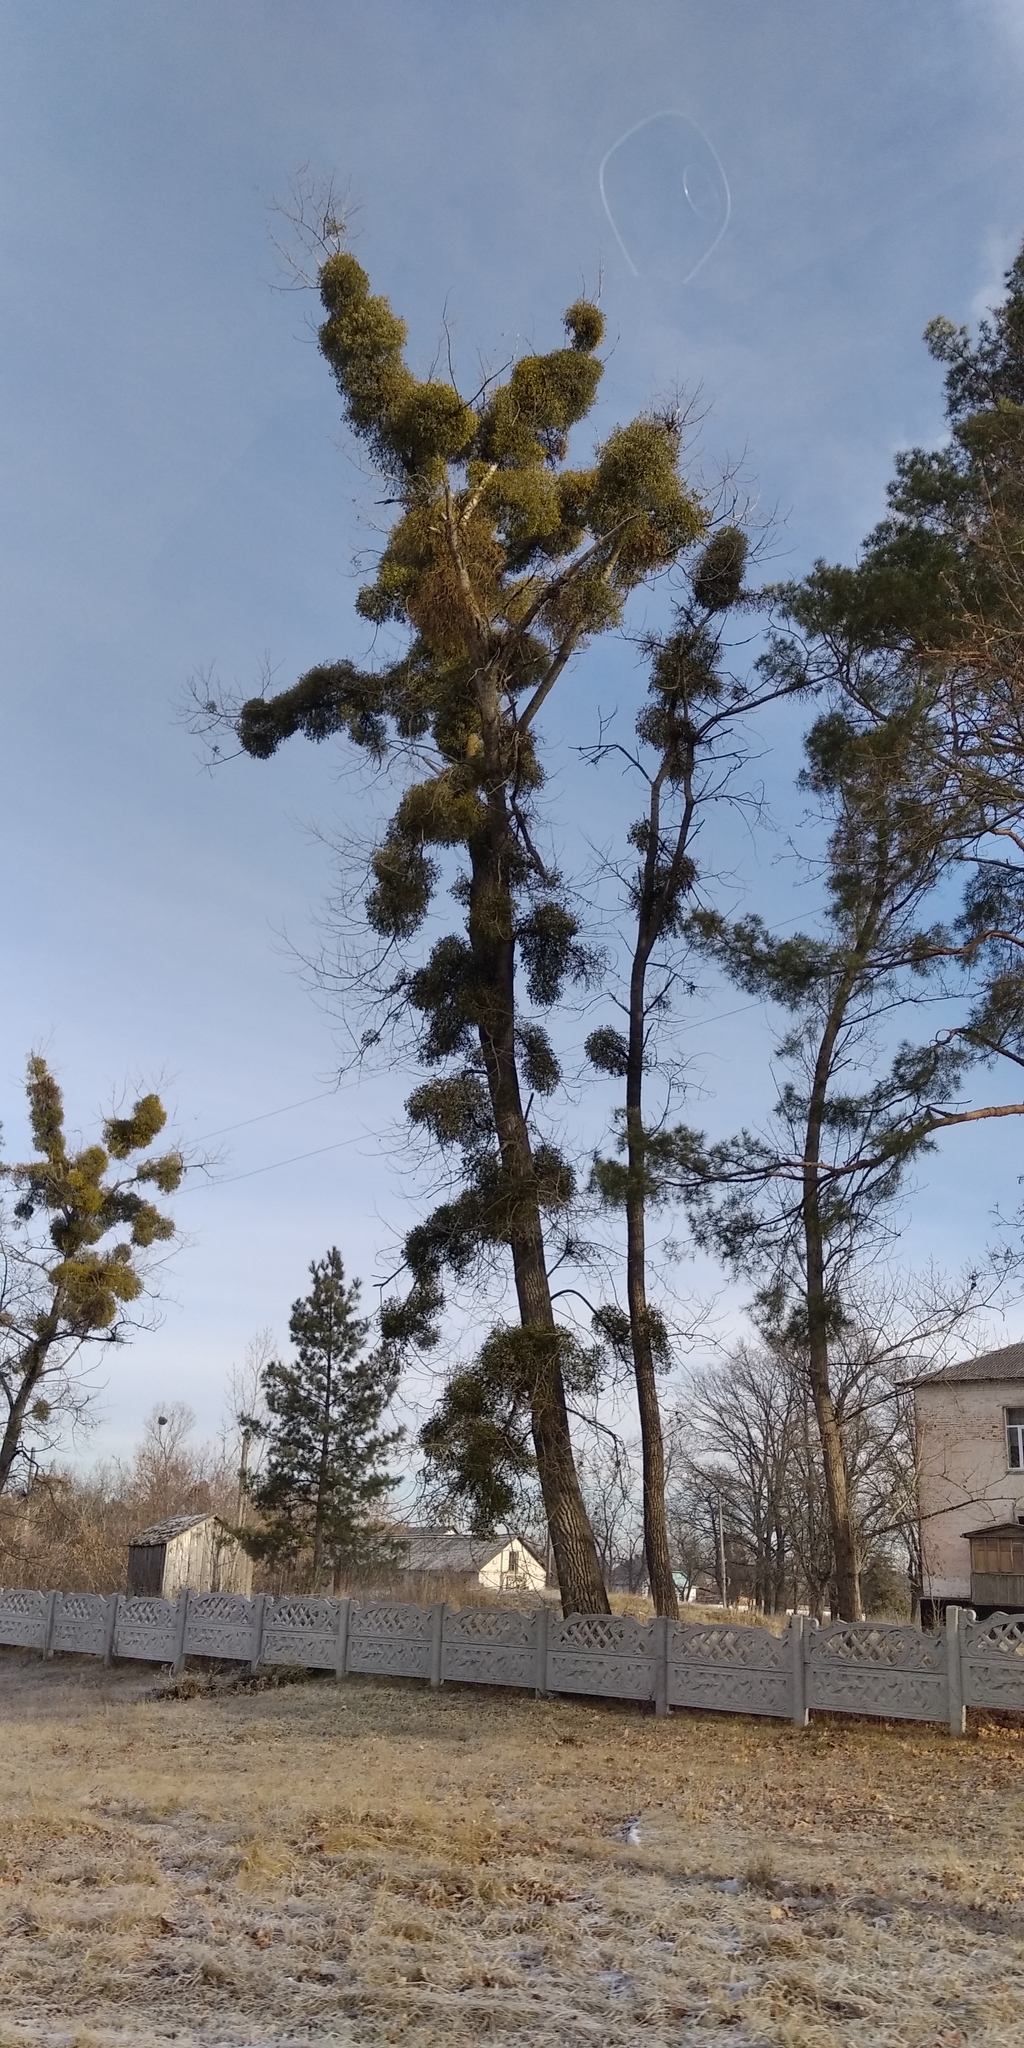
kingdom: Plantae
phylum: Tracheophyta
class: Magnoliopsida
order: Santalales
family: Viscaceae
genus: Viscum
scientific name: Viscum album
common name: Mistletoe
